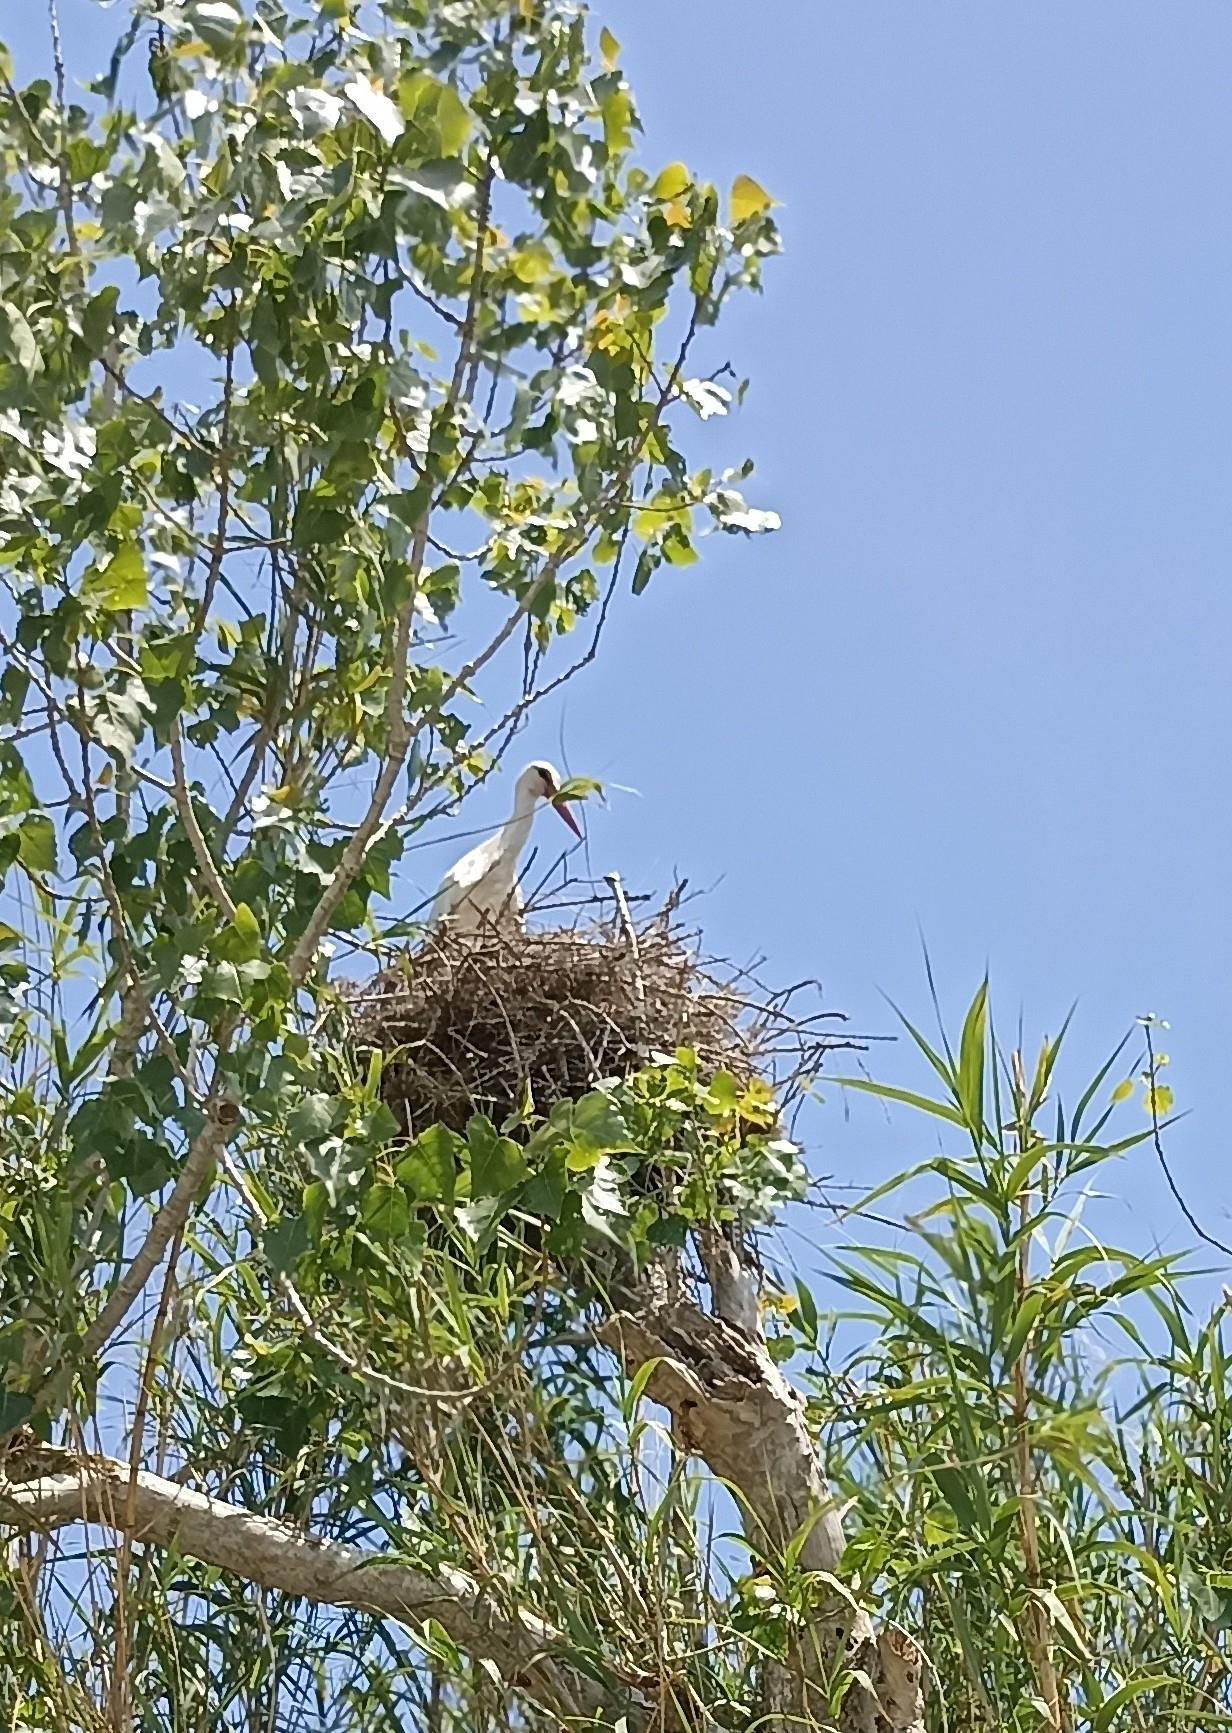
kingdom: Animalia
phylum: Chordata
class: Aves
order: Ciconiiformes
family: Ciconiidae
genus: Ciconia
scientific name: Ciconia ciconia
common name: White stork
